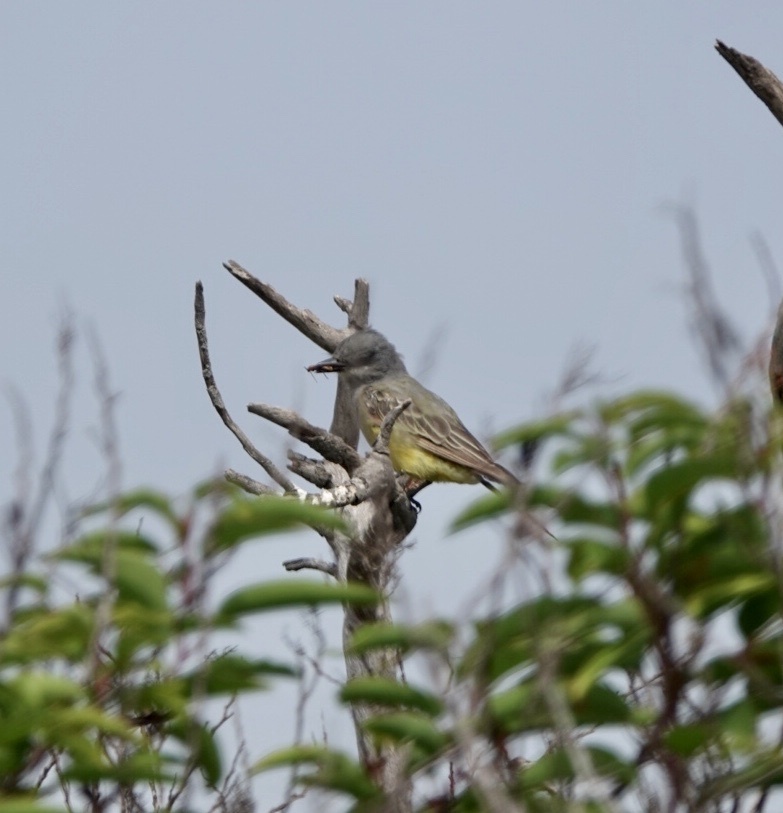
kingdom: Animalia
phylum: Chordata
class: Aves
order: Passeriformes
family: Tyrannidae
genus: Tyrannus
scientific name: Tyrannus vociferans
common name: Cassin's kingbird
